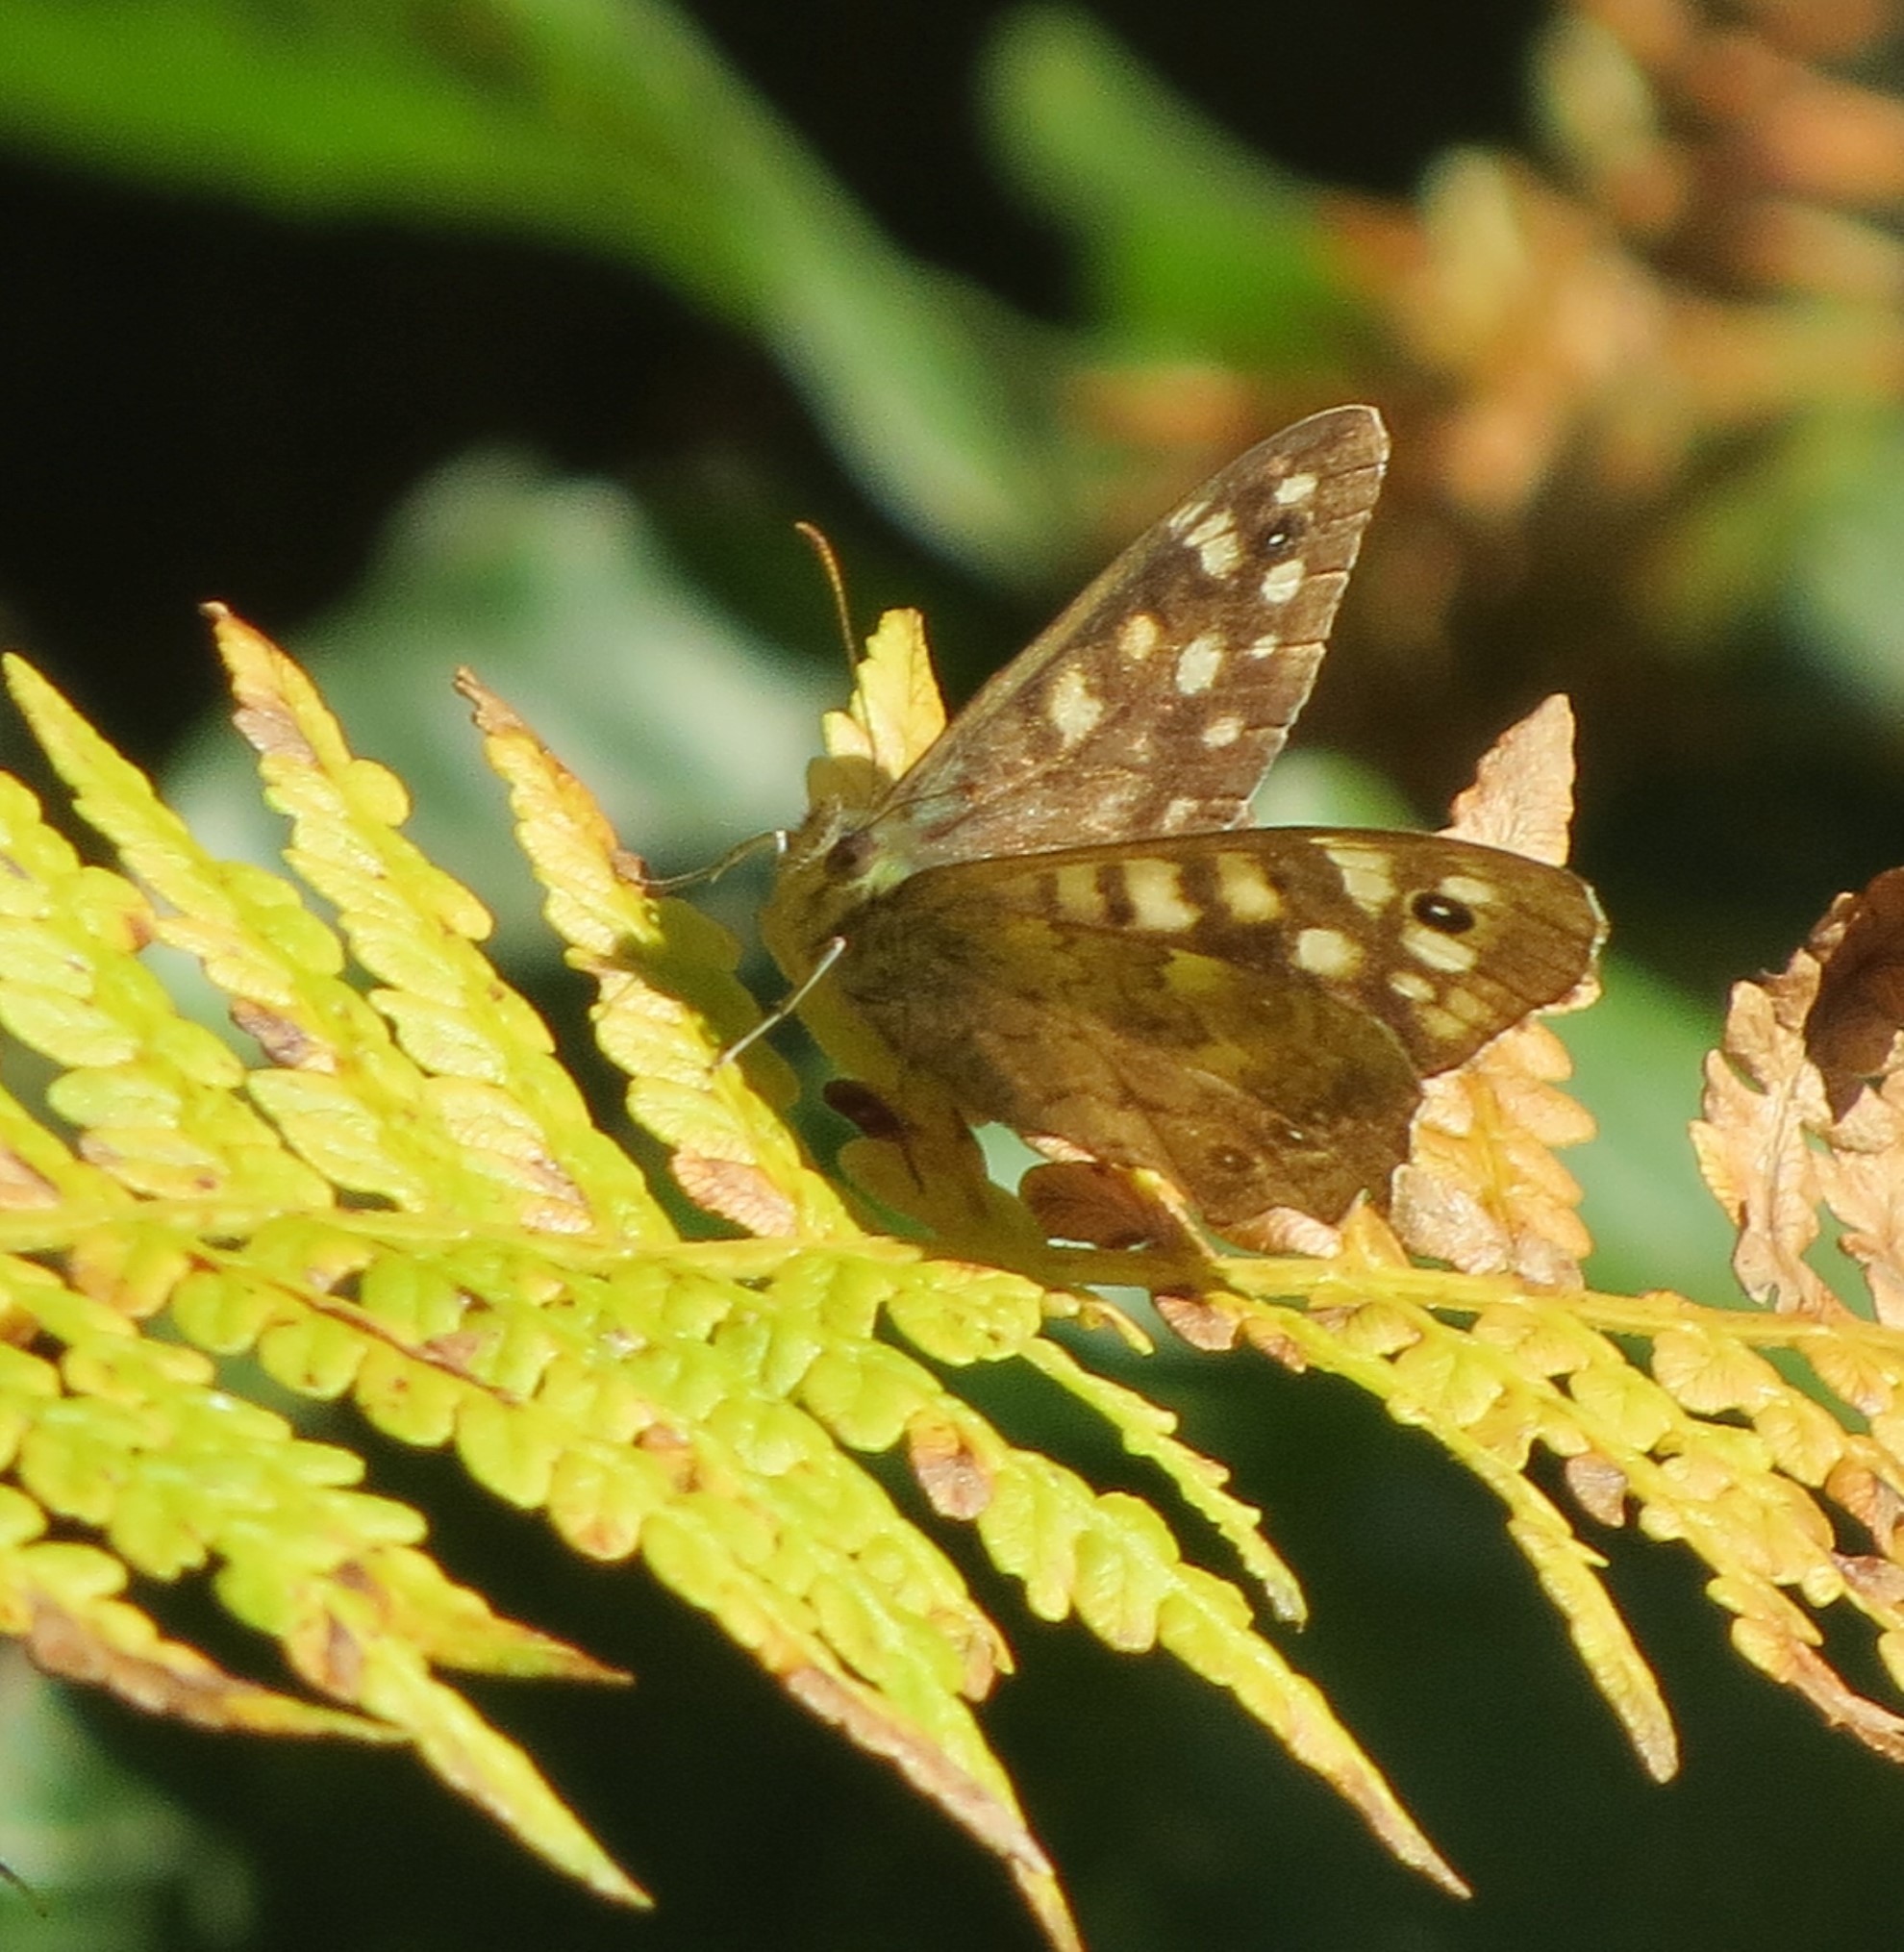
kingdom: Animalia
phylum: Arthropoda
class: Insecta
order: Lepidoptera
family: Nymphalidae
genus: Pararge
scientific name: Pararge aegeria
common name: Speckled wood
